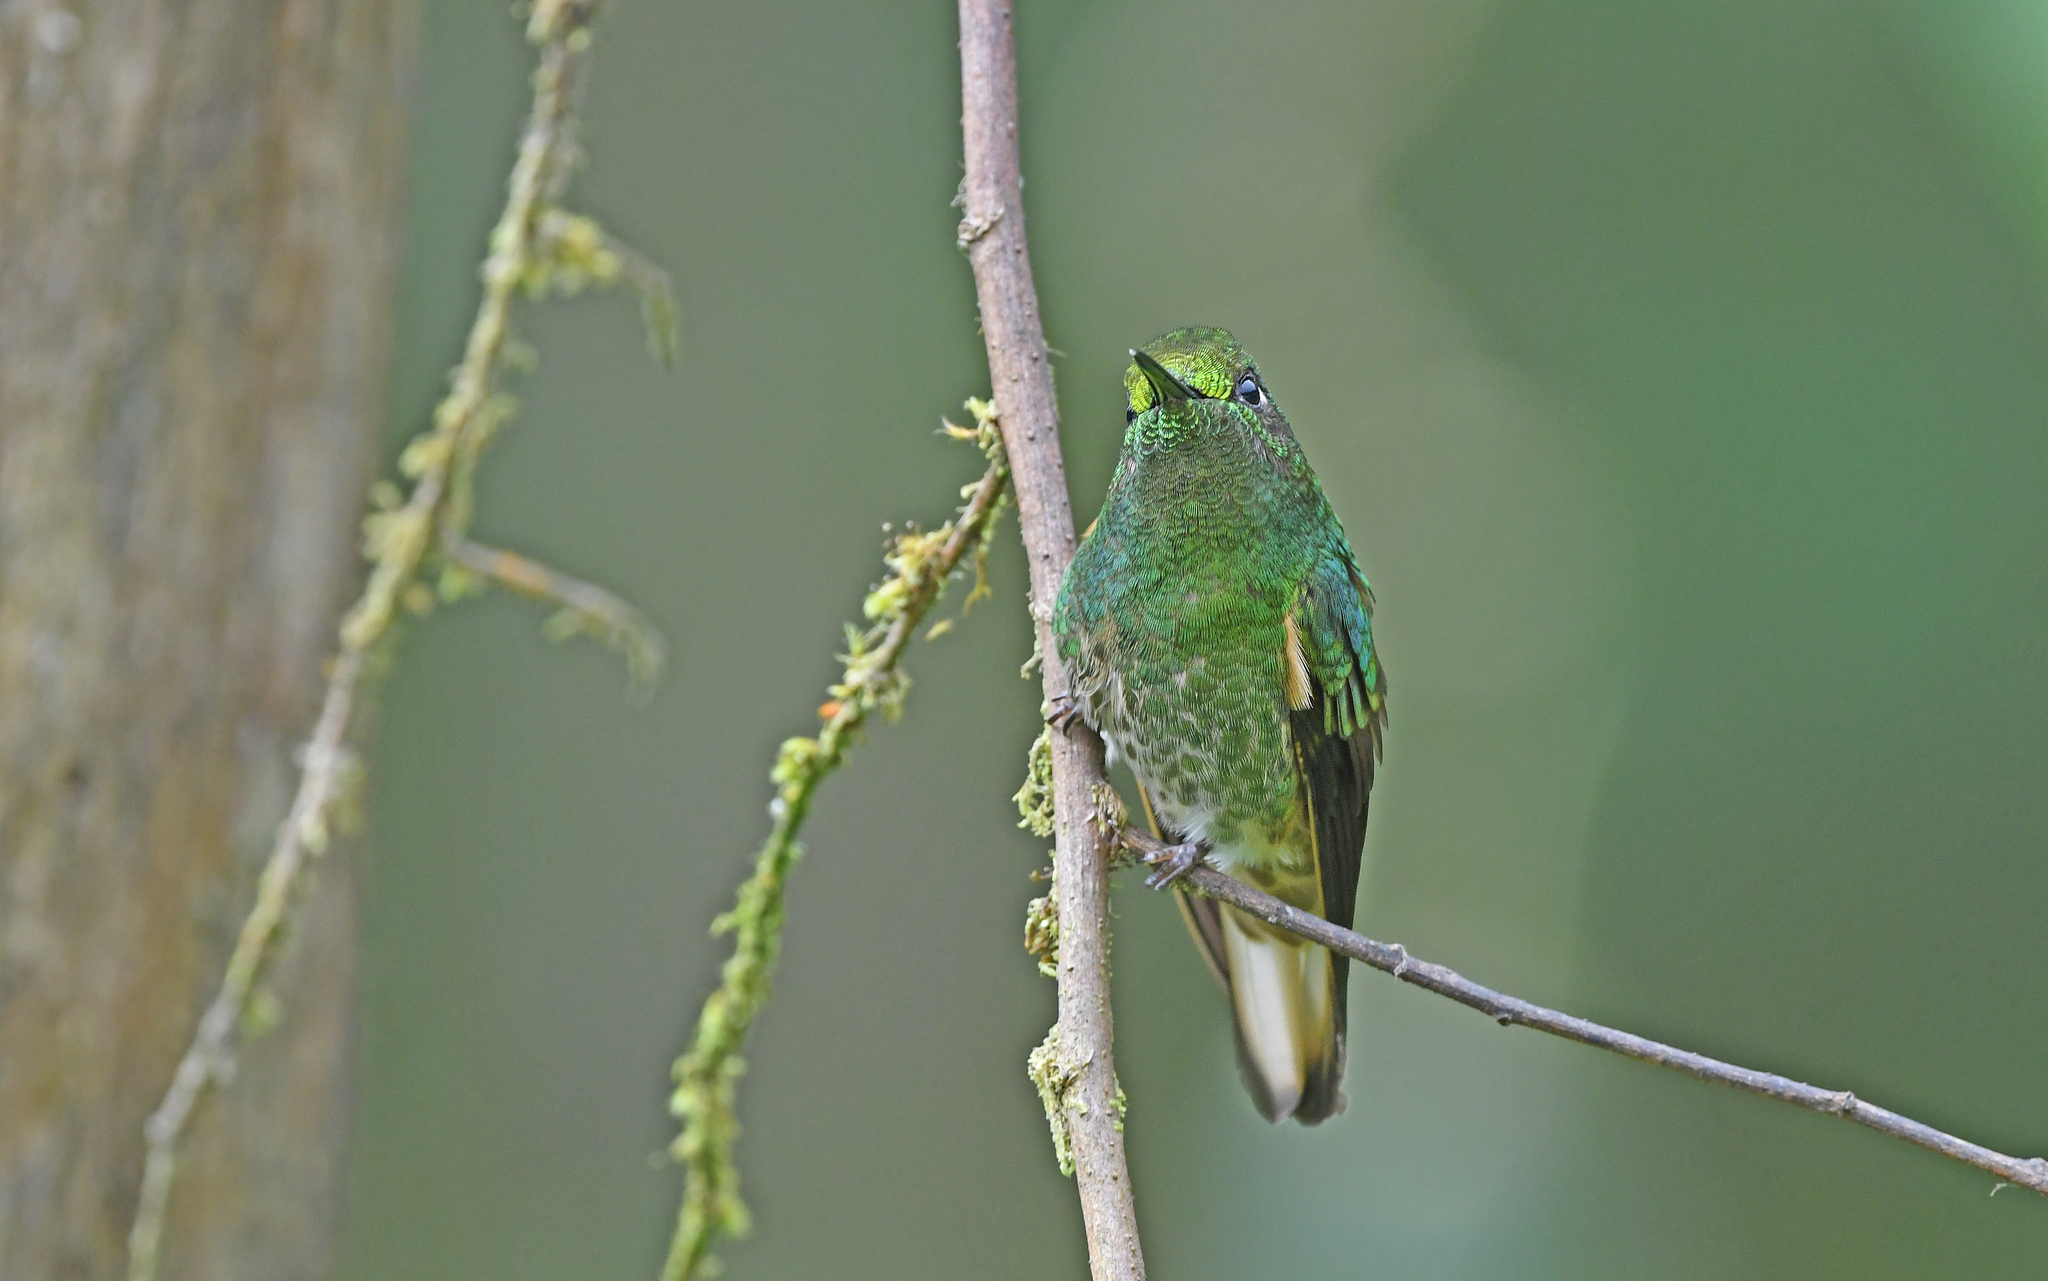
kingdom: Animalia
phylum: Chordata
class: Aves
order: Apodiformes
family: Trochilidae
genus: Boissonneaua
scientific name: Boissonneaua flavescens
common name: Buff-tailed coronet
